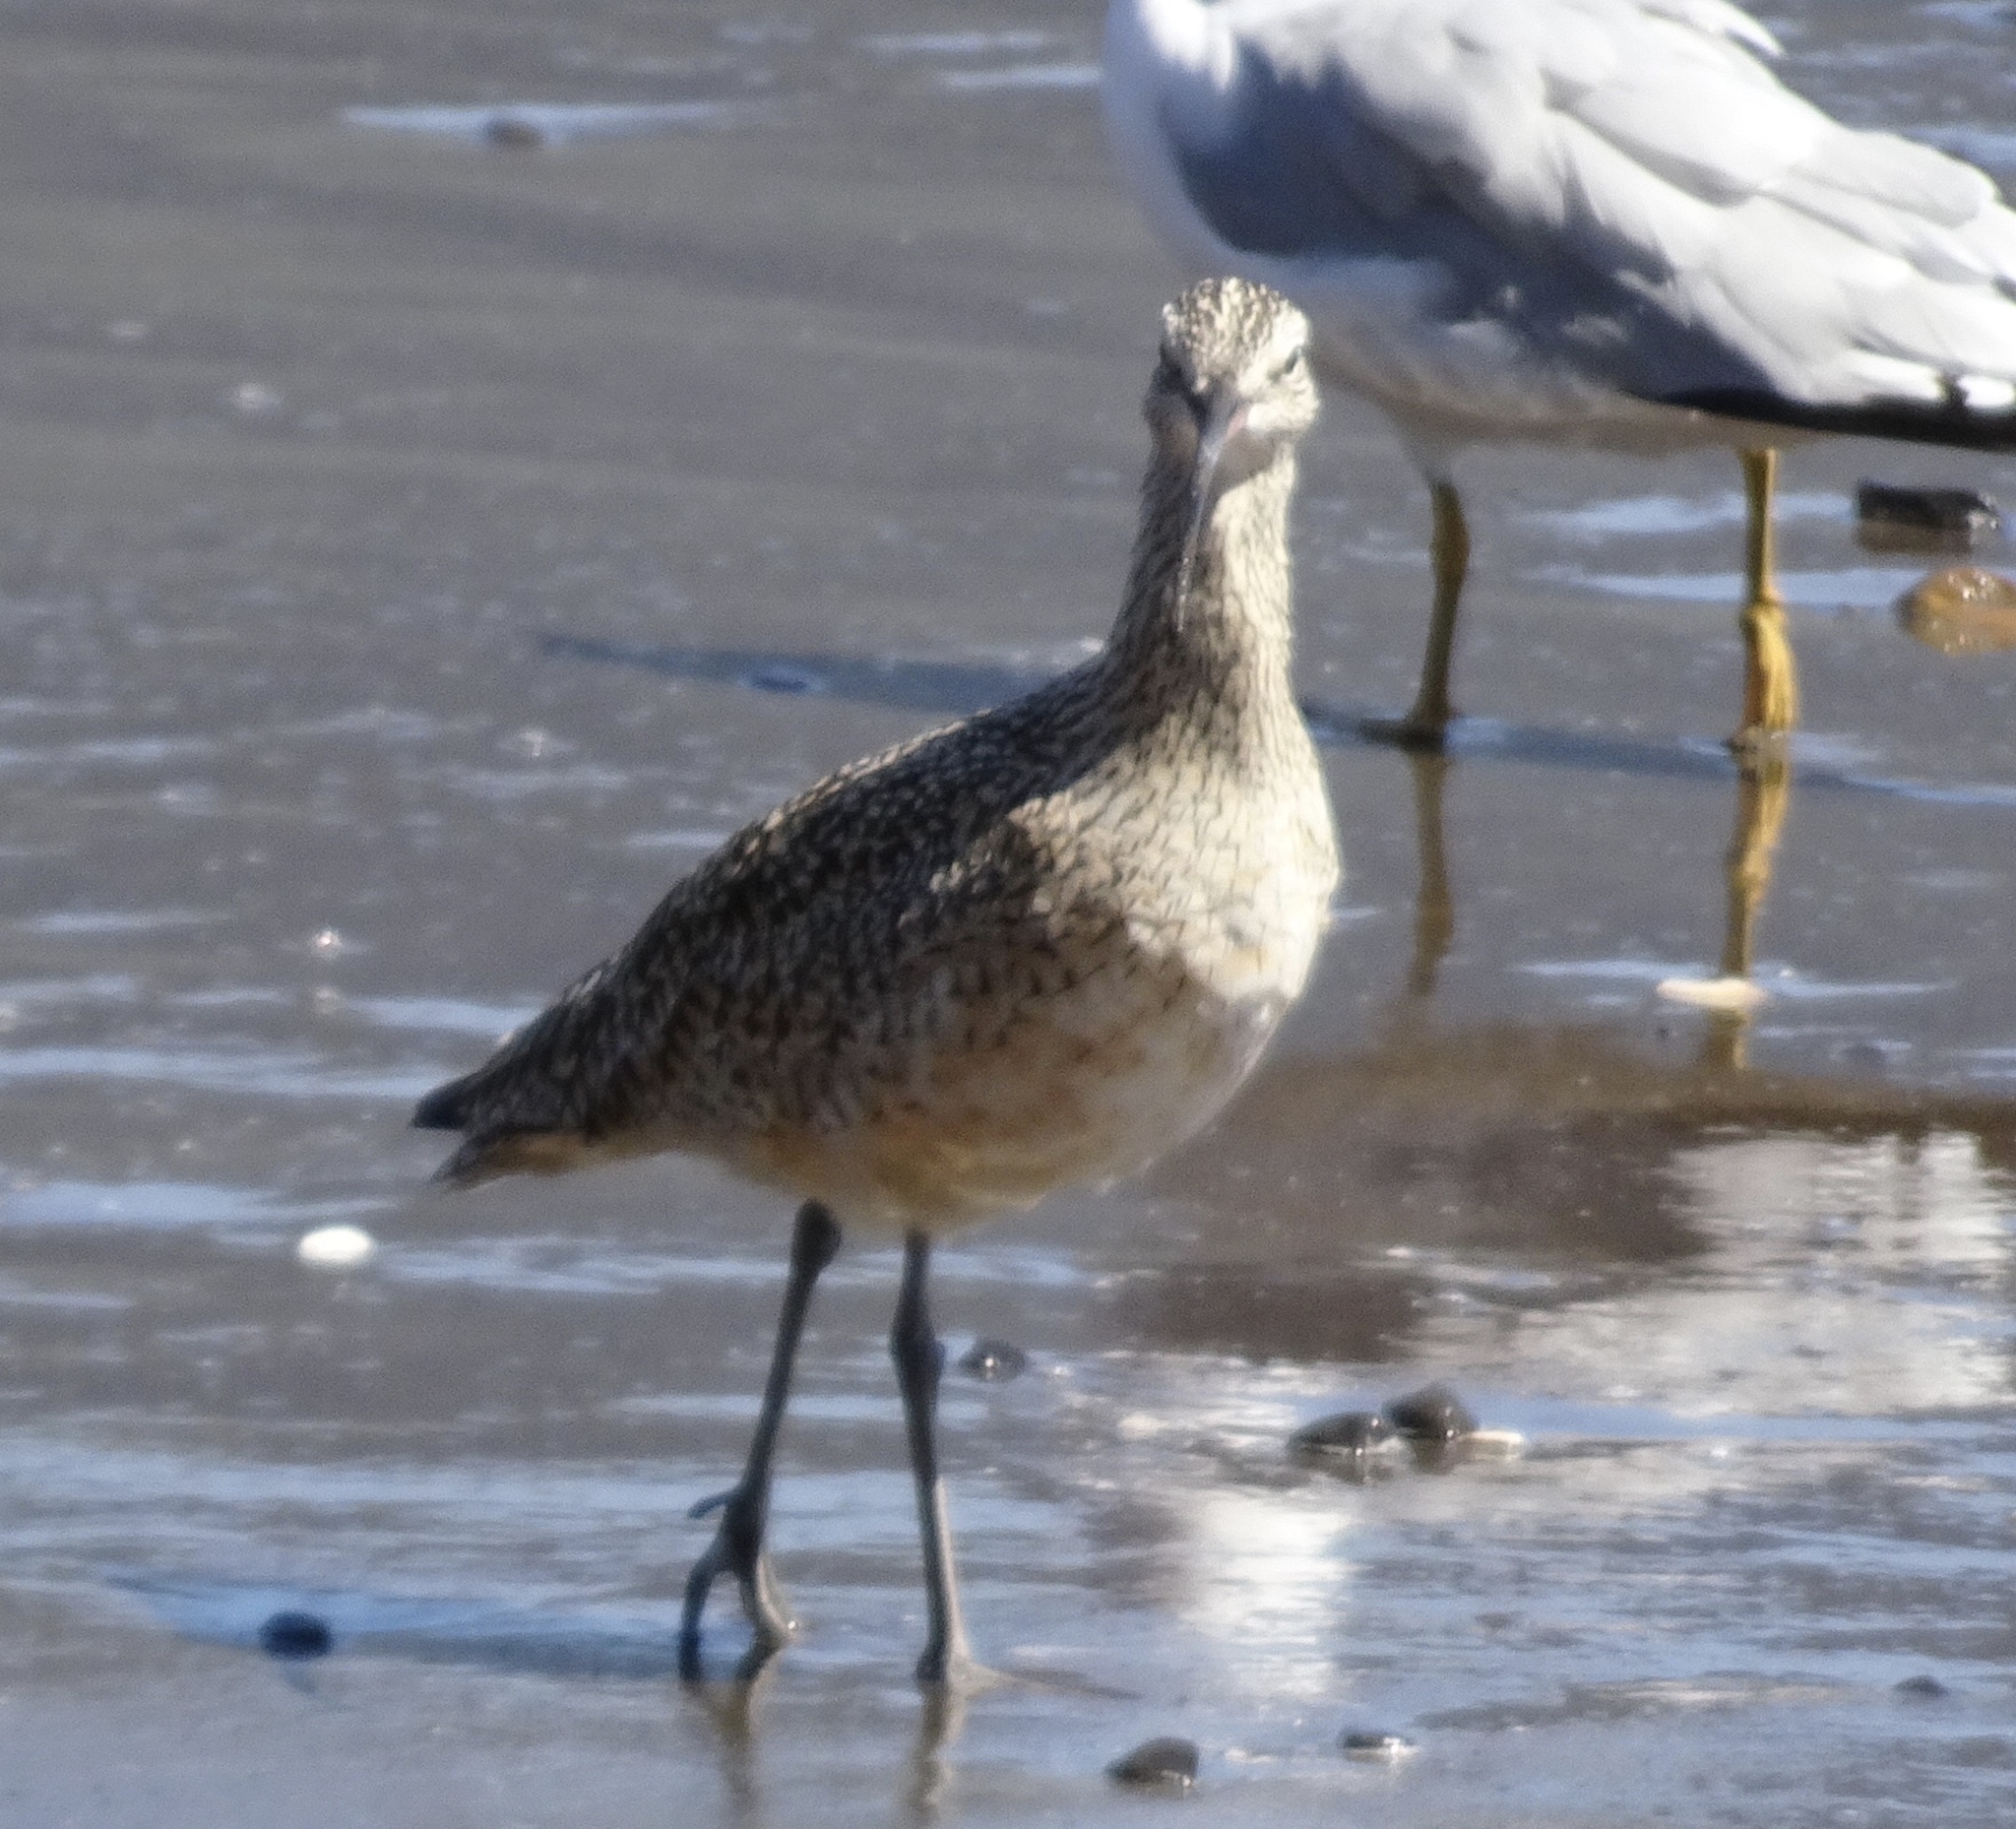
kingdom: Animalia
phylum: Chordata
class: Aves
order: Charadriiformes
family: Scolopacidae
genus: Numenius
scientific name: Numenius americanus
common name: Long-billed curlew
